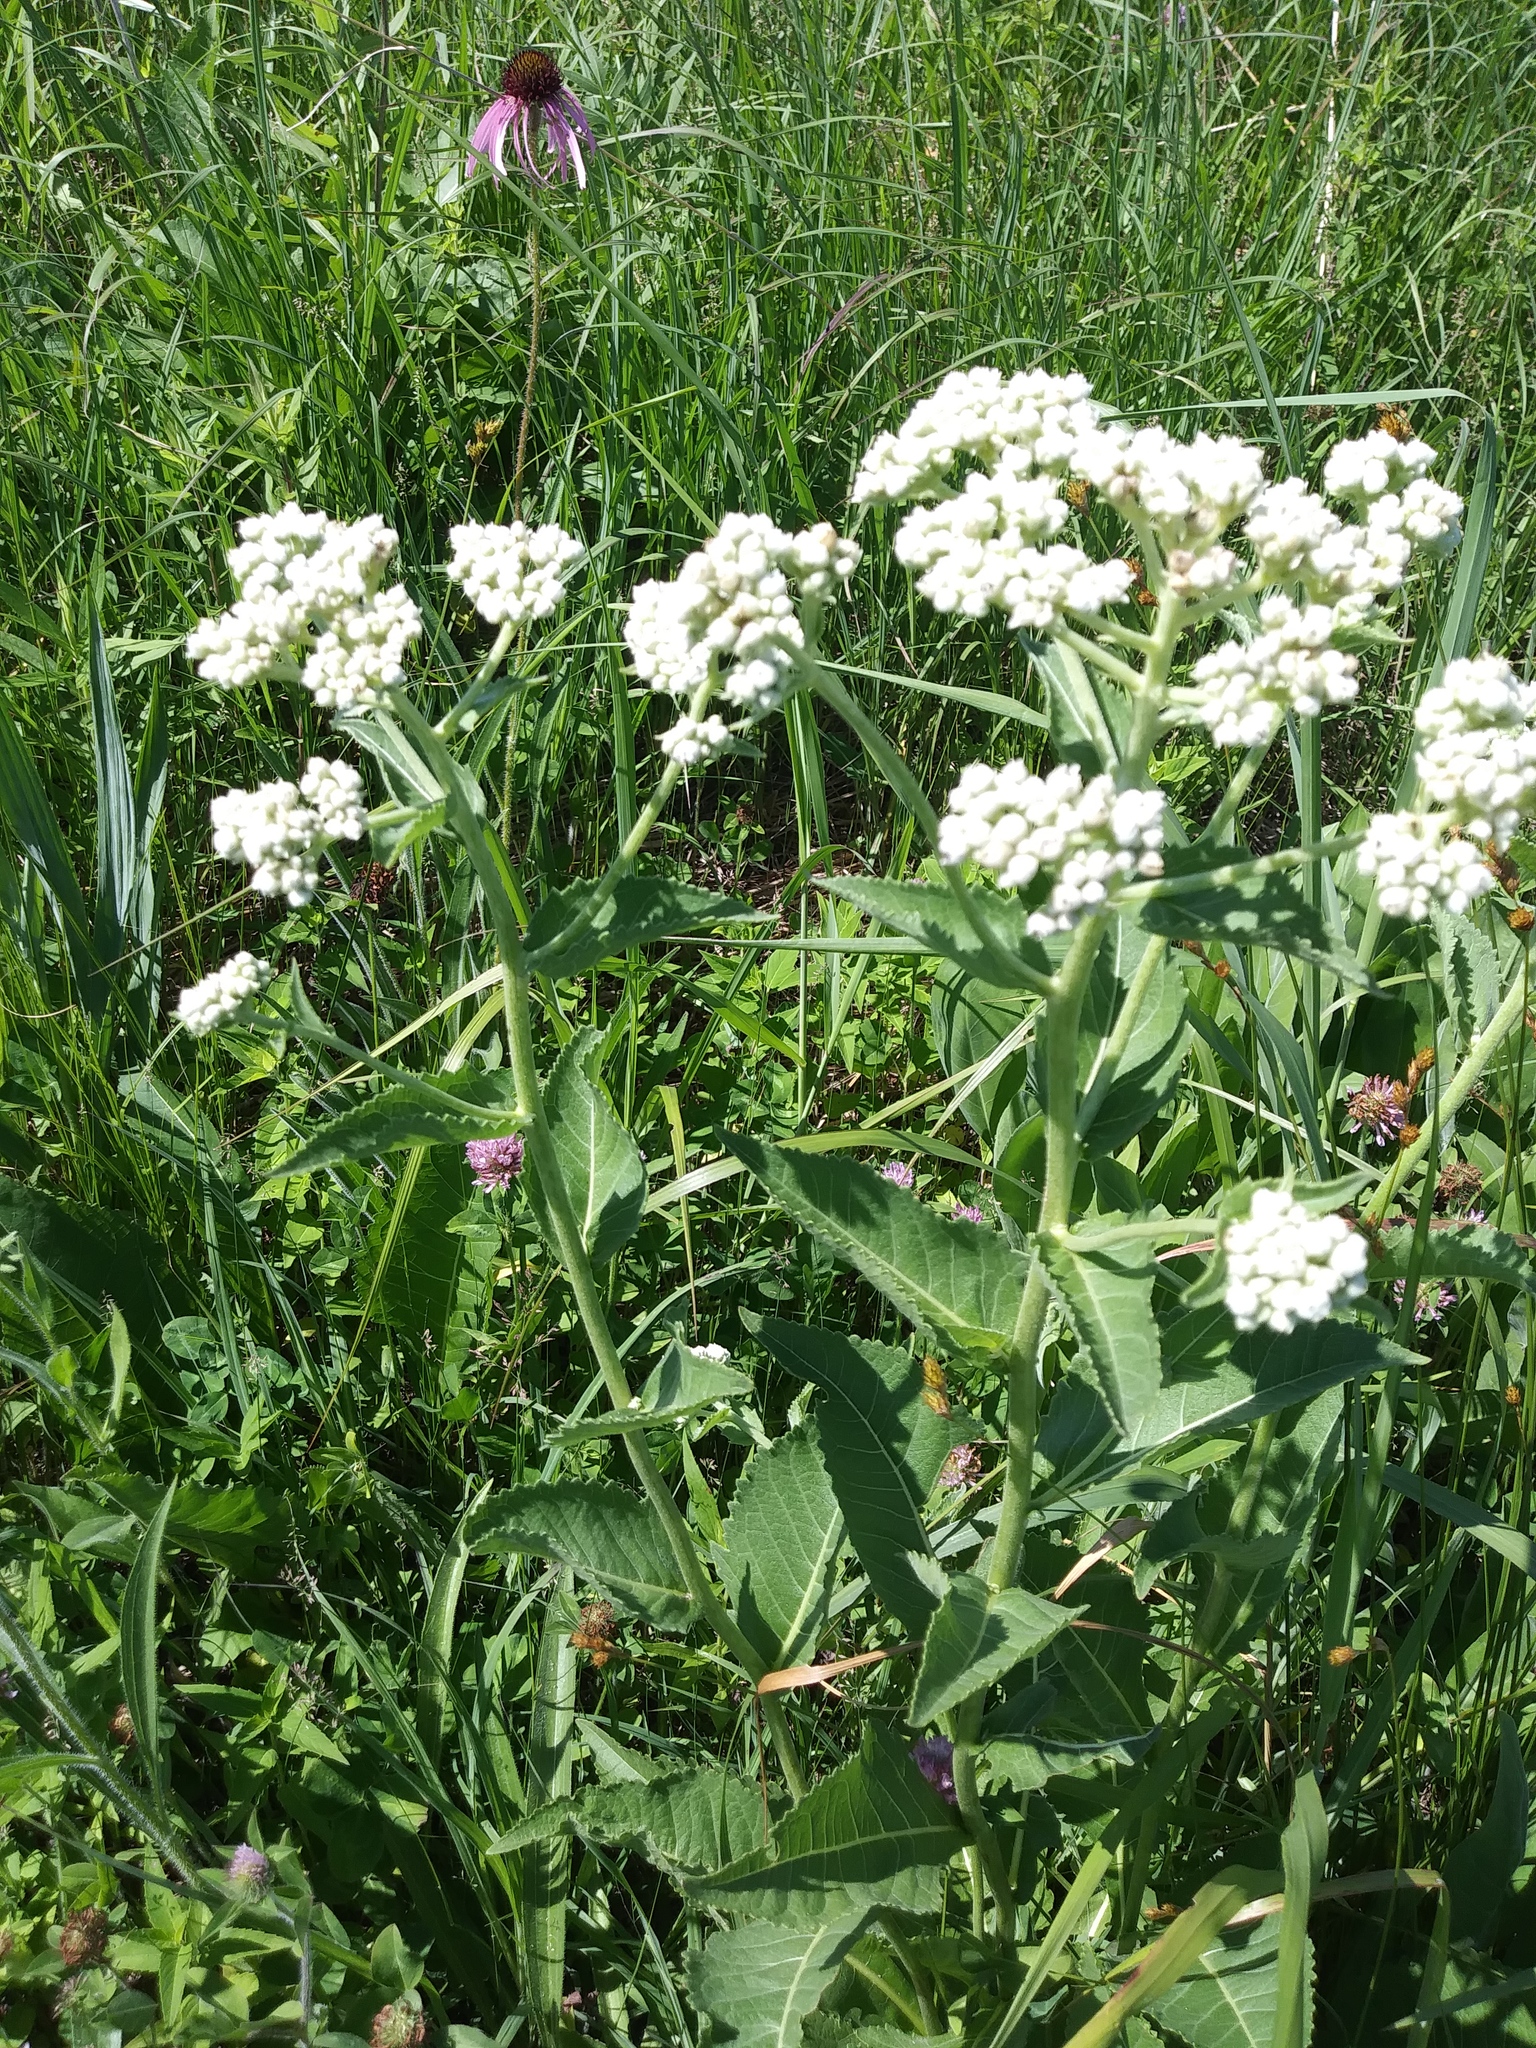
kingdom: Plantae
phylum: Tracheophyta
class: Magnoliopsida
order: Asterales
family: Asteraceae
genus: Parthenium
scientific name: Parthenium integrifolium
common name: American feverfew
